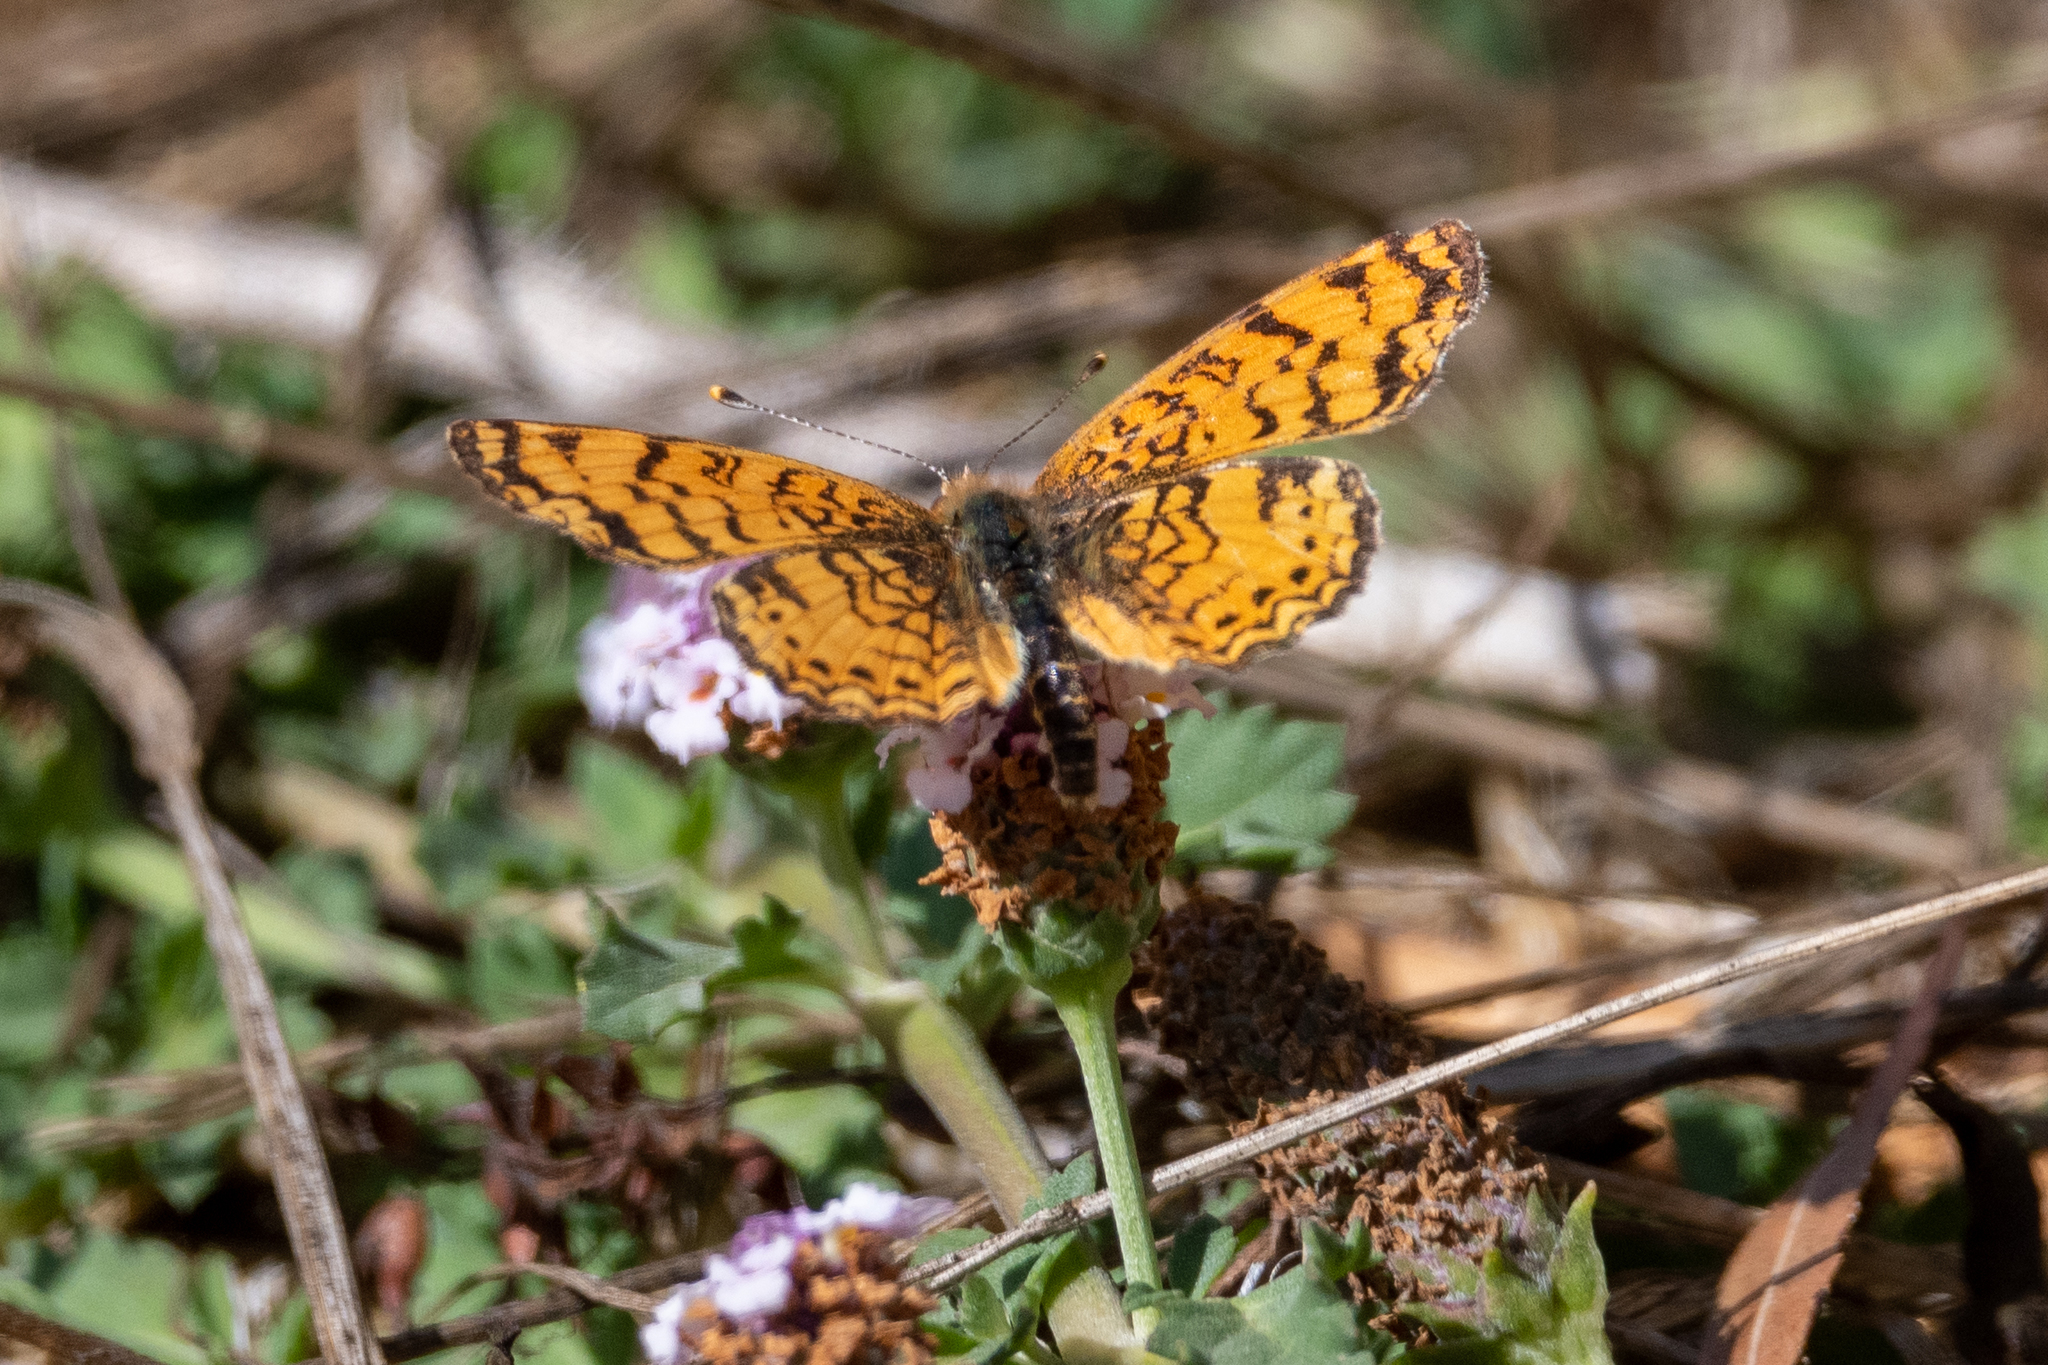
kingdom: Animalia
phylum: Arthropoda
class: Insecta
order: Lepidoptera
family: Nymphalidae
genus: Eresia
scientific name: Eresia aveyrona
